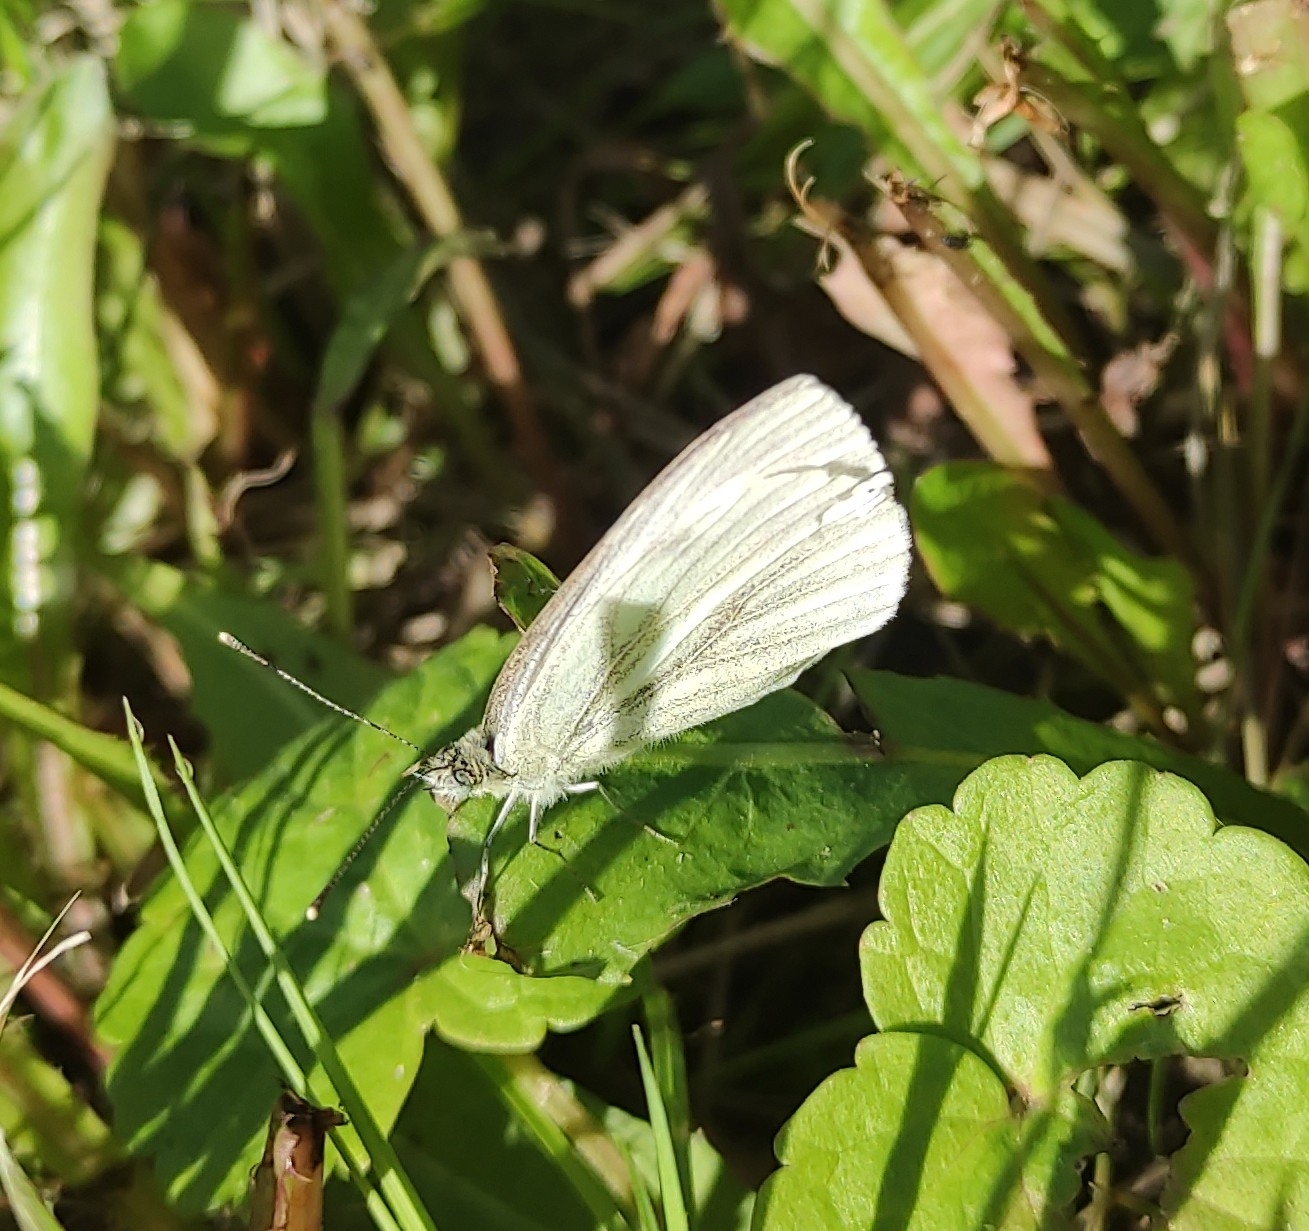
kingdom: Animalia
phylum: Arthropoda
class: Insecta
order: Lepidoptera
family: Pieridae
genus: Pieris
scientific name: Pieris napi
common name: Green-veined white
